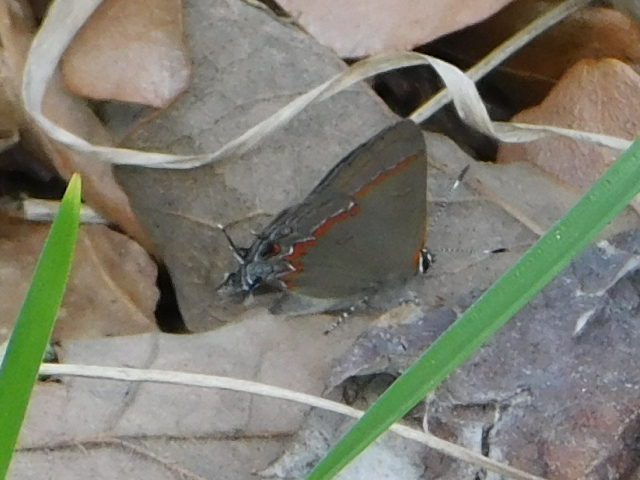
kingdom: Animalia
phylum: Arthropoda
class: Insecta
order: Lepidoptera
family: Lycaenidae
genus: Calycopis
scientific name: Calycopis cecrops
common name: Red-banded hairstreak
